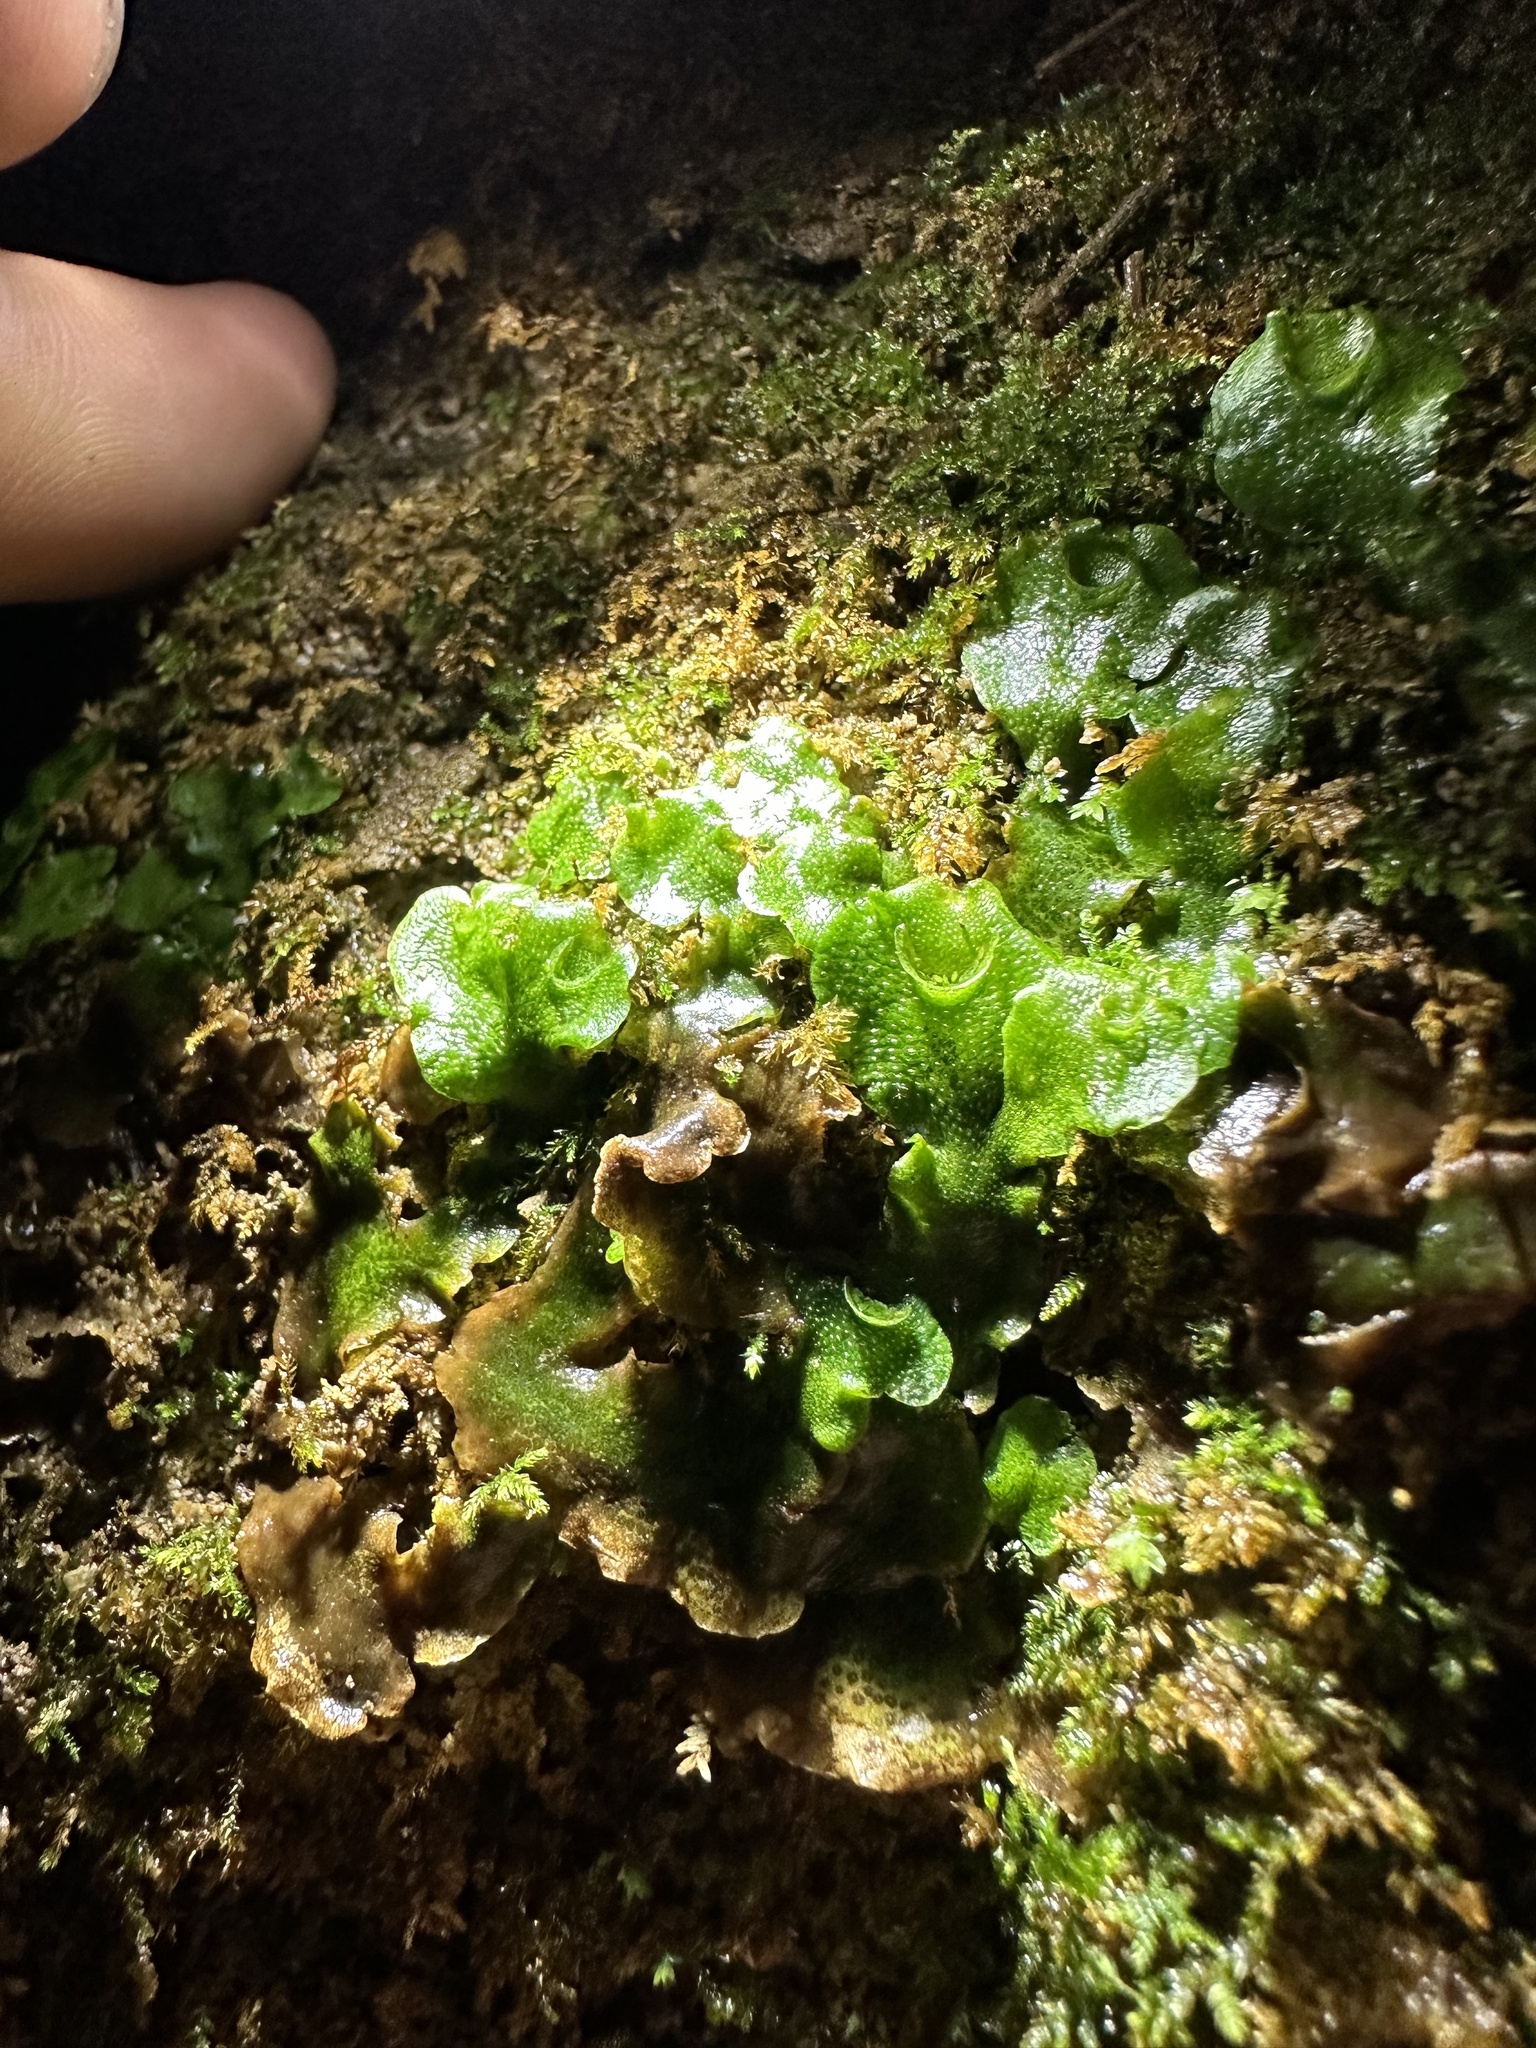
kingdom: Plantae
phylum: Marchantiophyta
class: Marchantiopsida
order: Lunulariales
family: Lunulariaceae
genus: Lunularia
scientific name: Lunularia cruciata
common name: Crescent-cup liverwort
